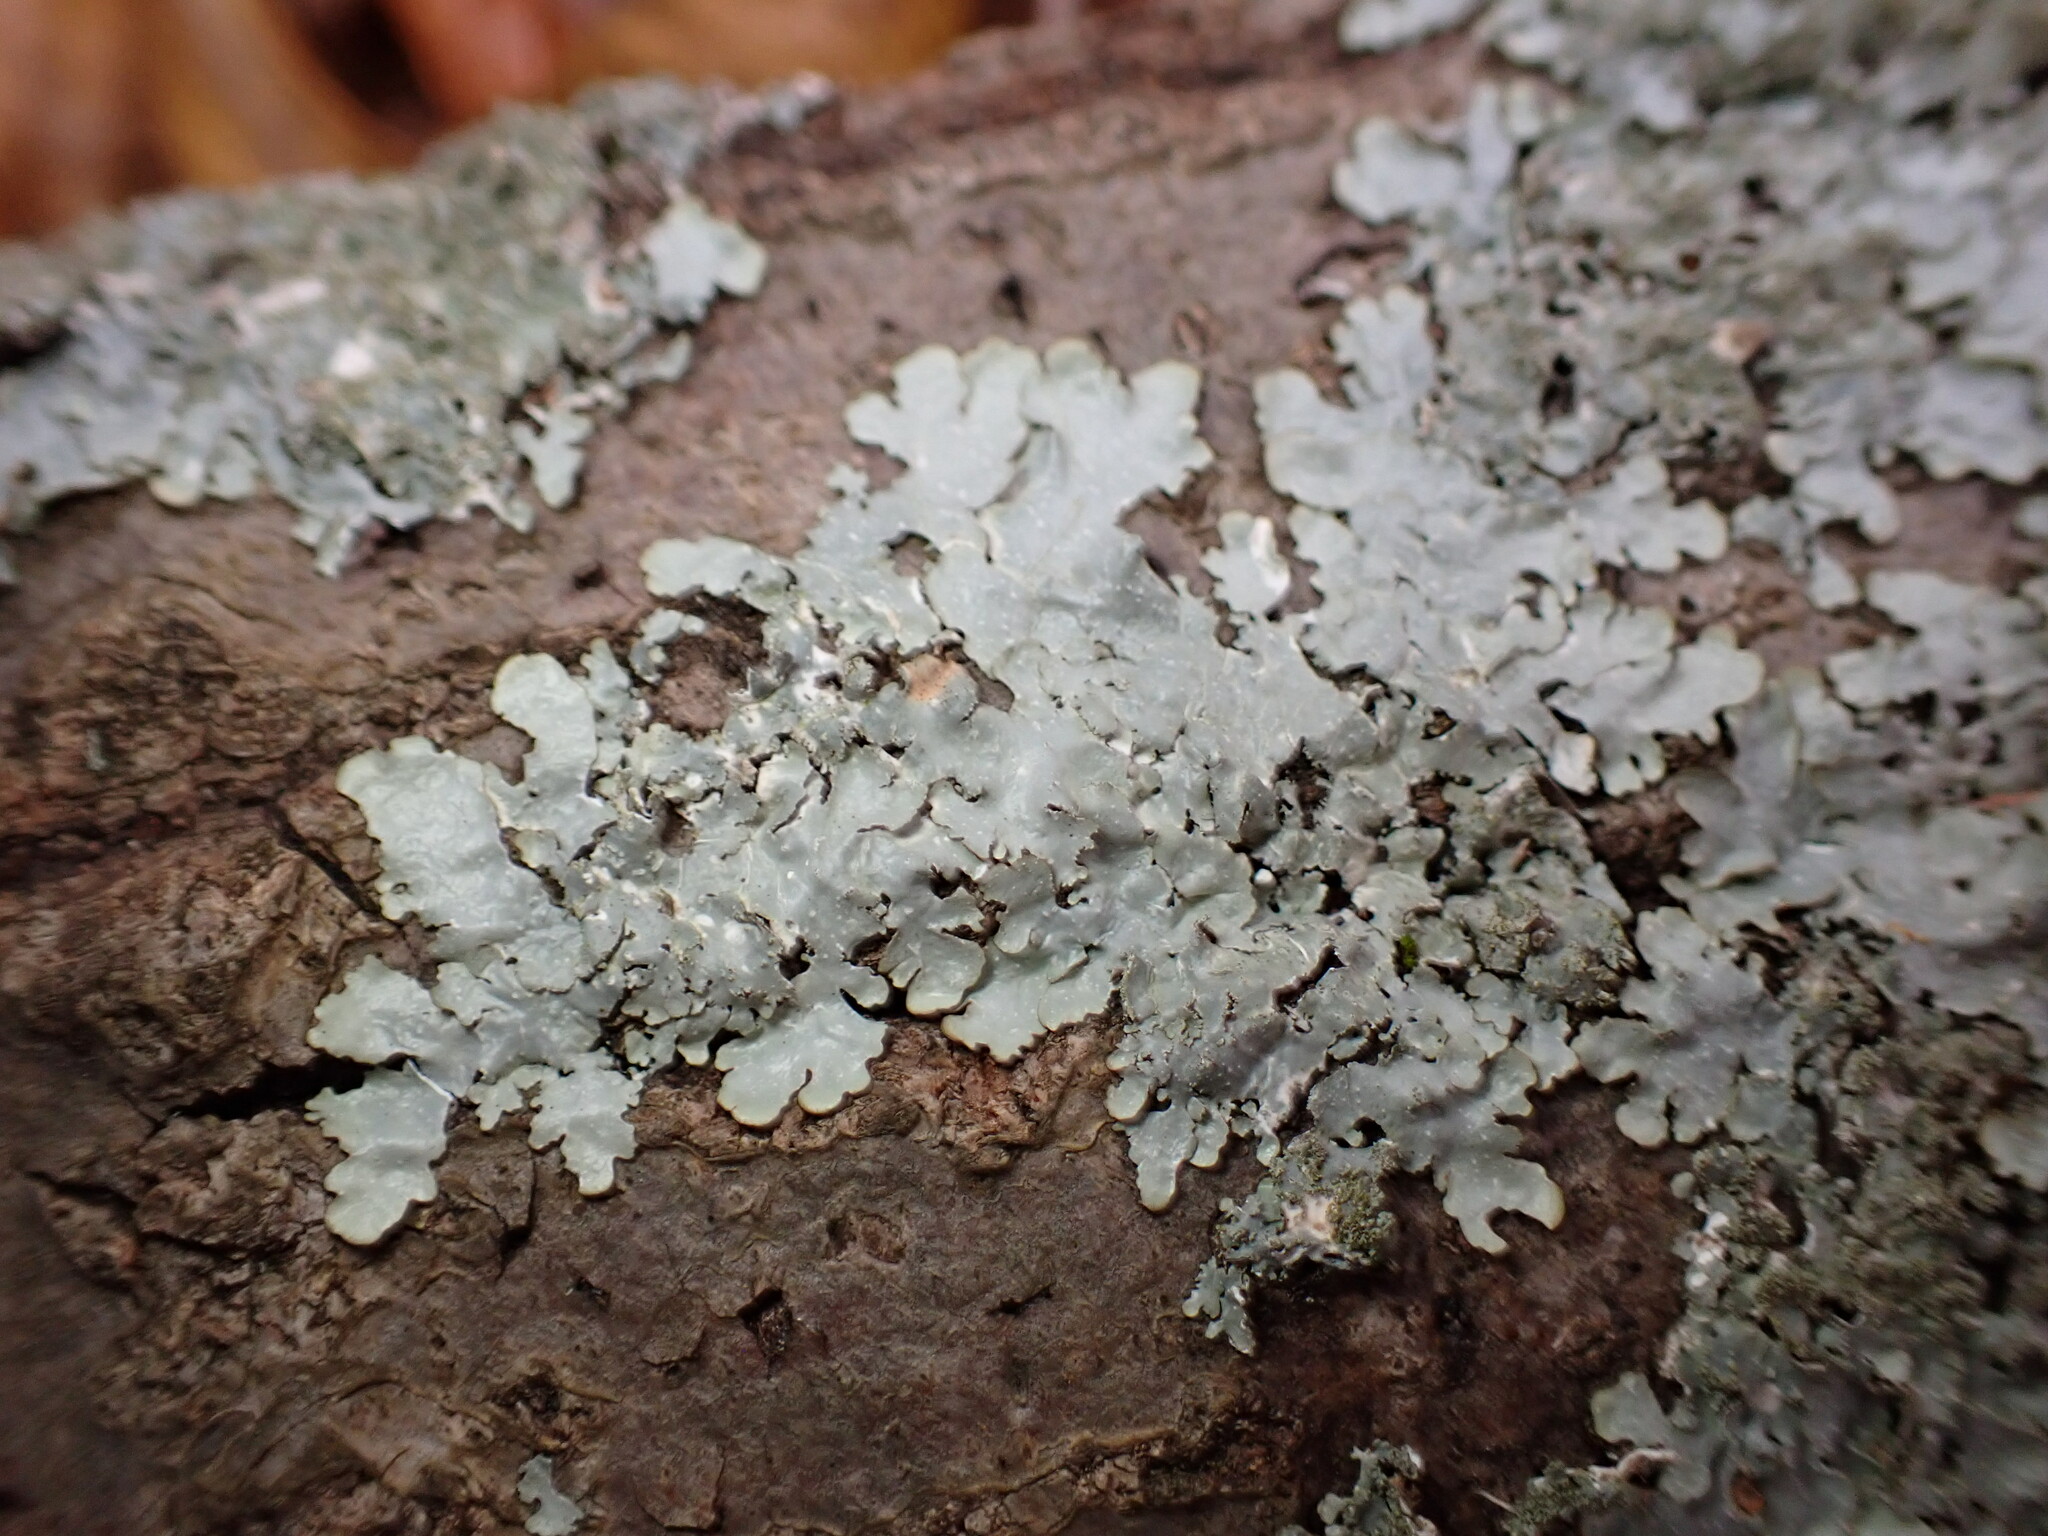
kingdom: Fungi
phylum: Ascomycota
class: Lecanoromycetes
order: Lecanorales
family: Parmeliaceae
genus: Punctelia
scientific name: Punctelia rudecta
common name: Rough speckled shield lichen
